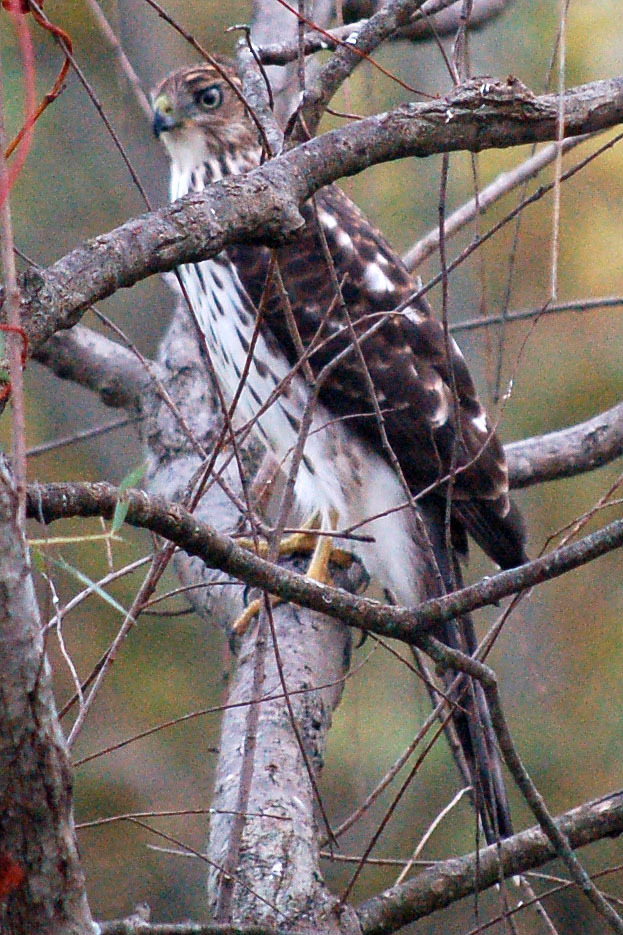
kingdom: Animalia
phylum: Chordata
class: Aves
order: Accipitriformes
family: Accipitridae
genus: Accipiter
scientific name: Accipiter cooperii
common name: Cooper's hawk
